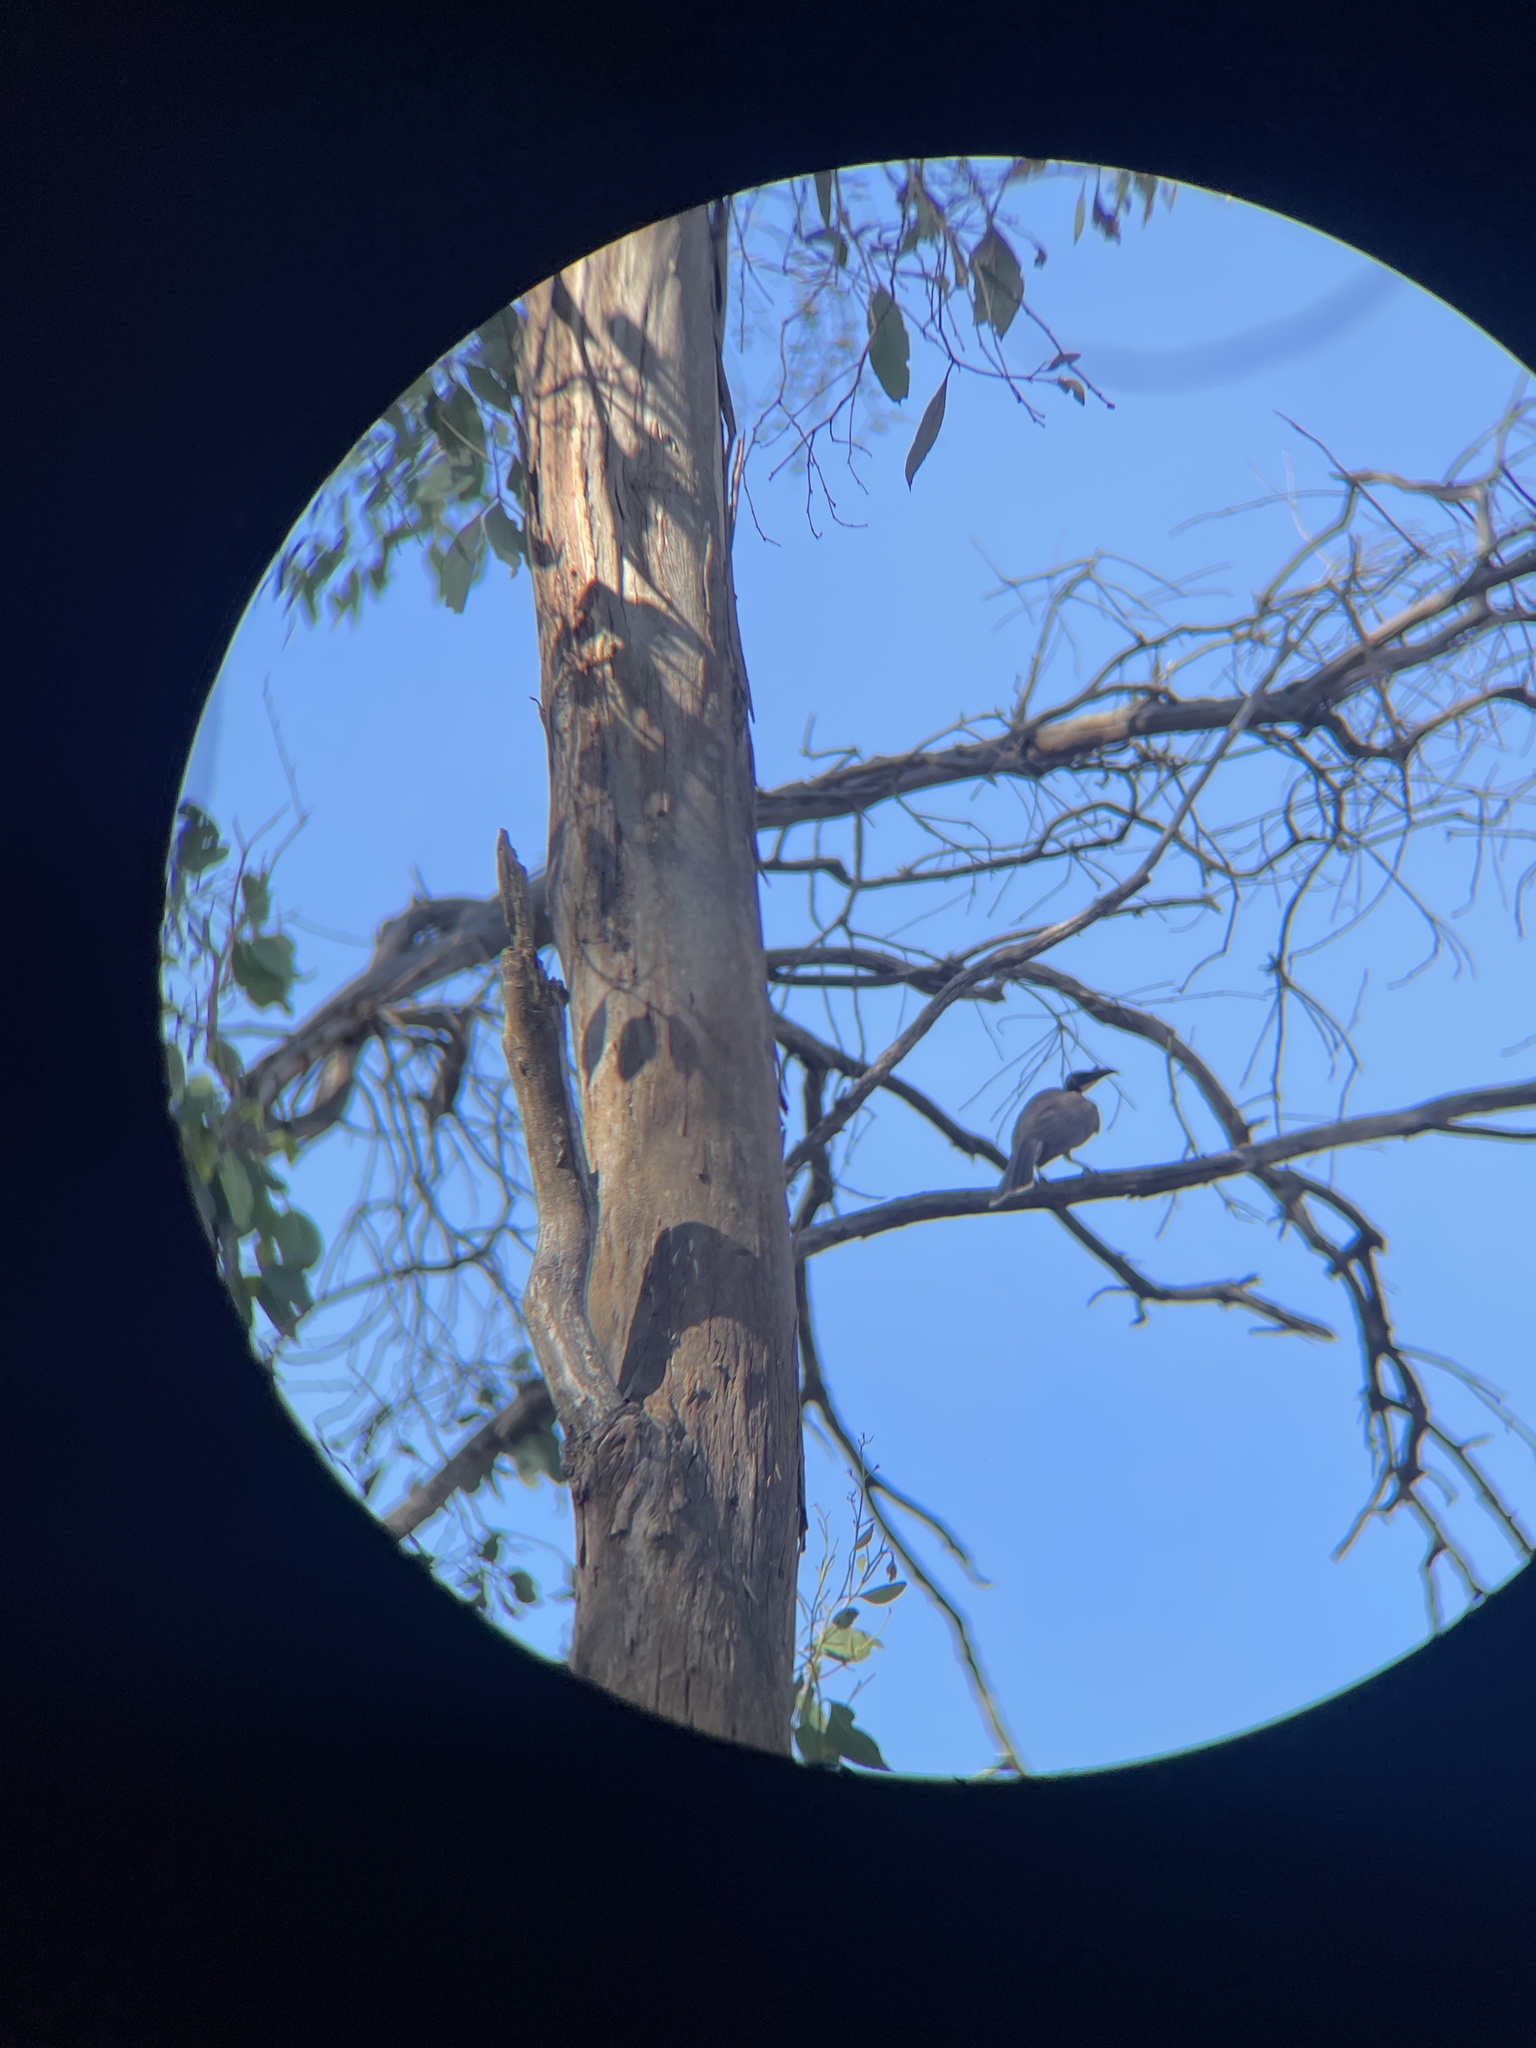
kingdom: Animalia
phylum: Chordata
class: Aves
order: Passeriformes
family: Meliphagidae
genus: Philemon
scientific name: Philemon corniculatus
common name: Noisy friarbird
